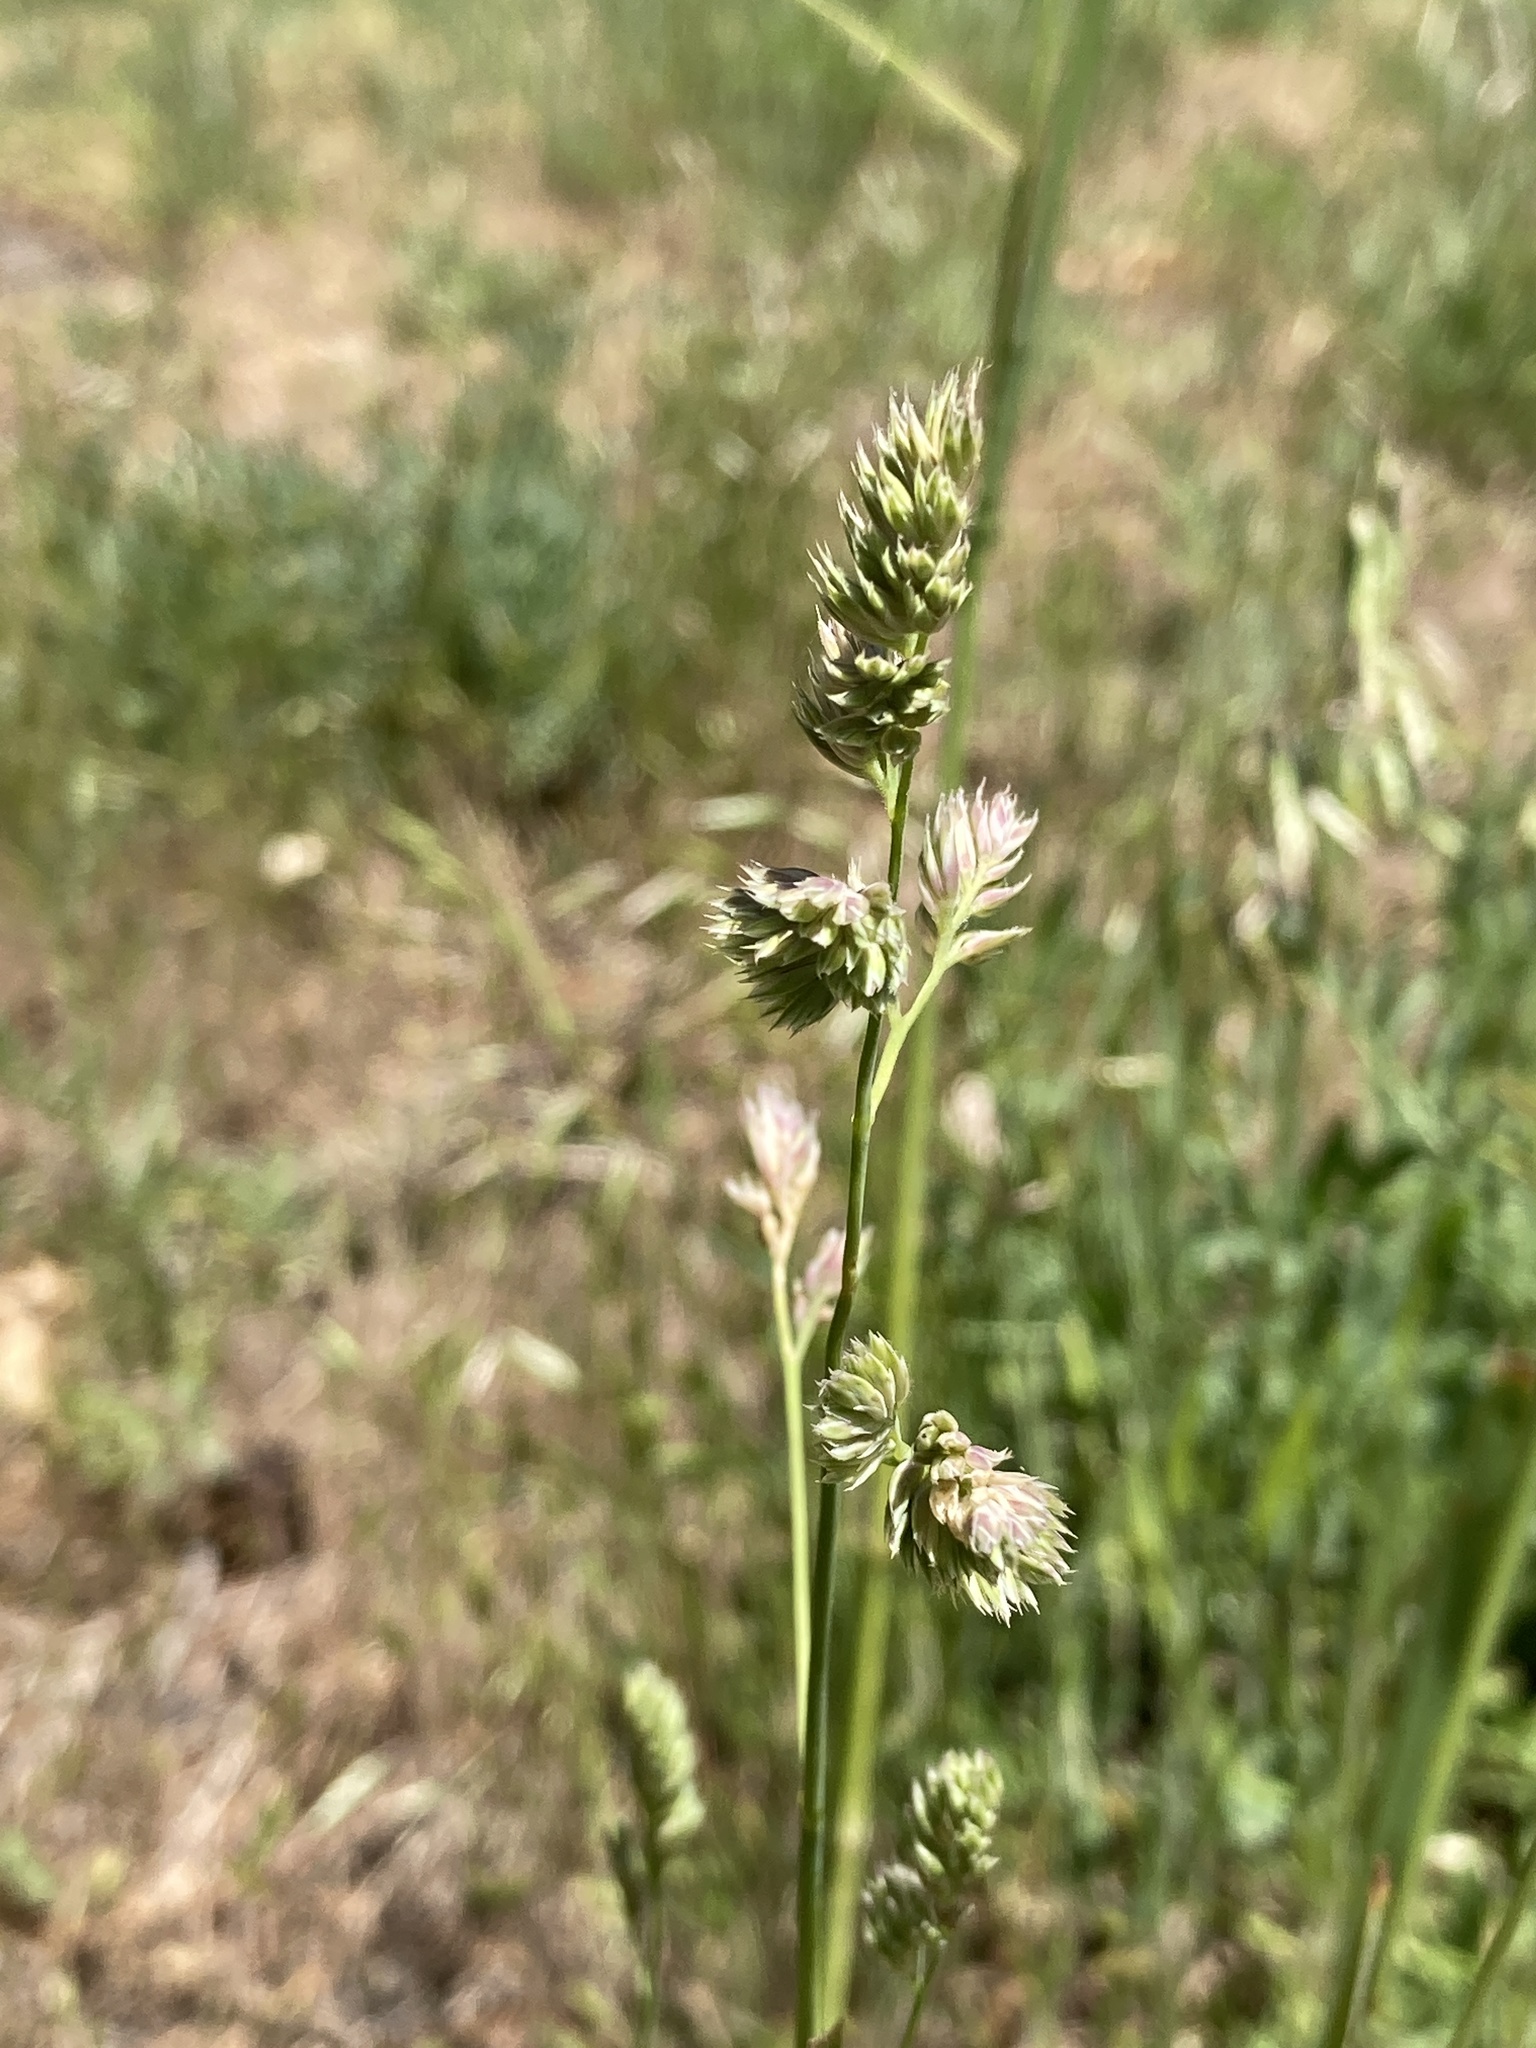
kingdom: Plantae
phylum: Tracheophyta
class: Liliopsida
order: Poales
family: Poaceae
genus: Dactylis
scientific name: Dactylis glomerata
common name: Orchardgrass
